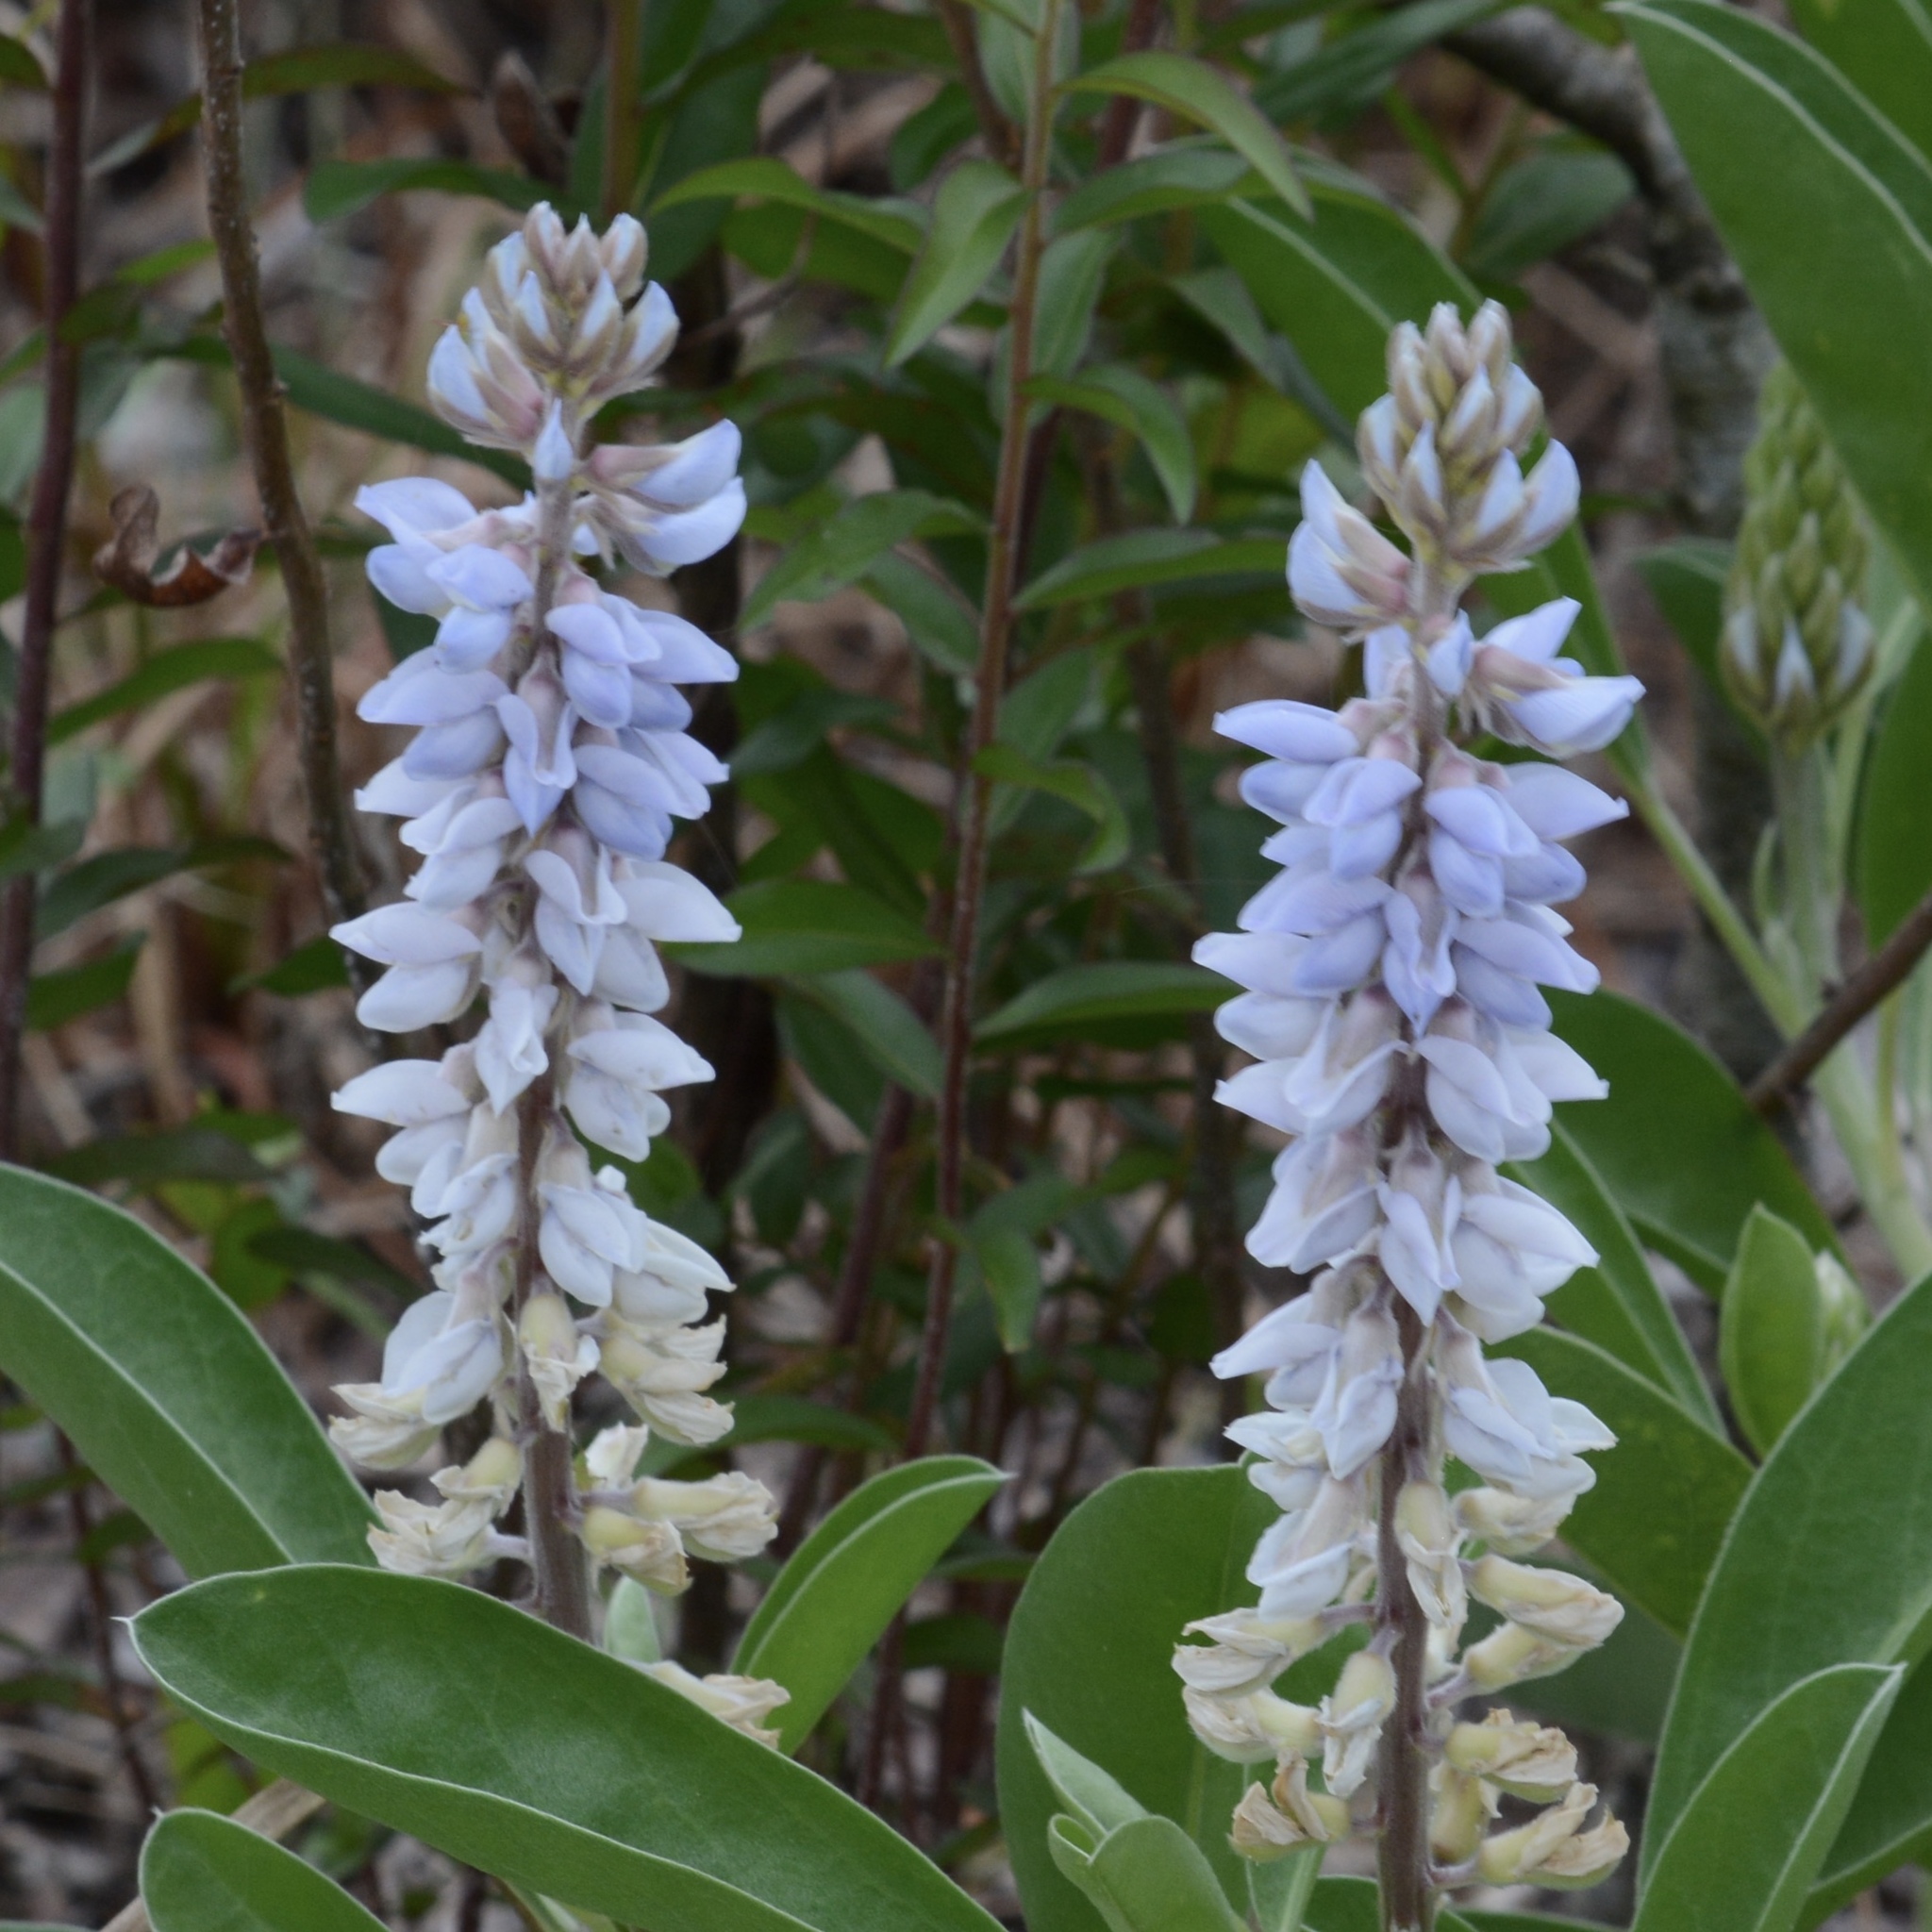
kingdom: Plantae
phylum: Tracheophyta
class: Magnoliopsida
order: Fabales
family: Fabaceae
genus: Lupinus
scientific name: Lupinus
